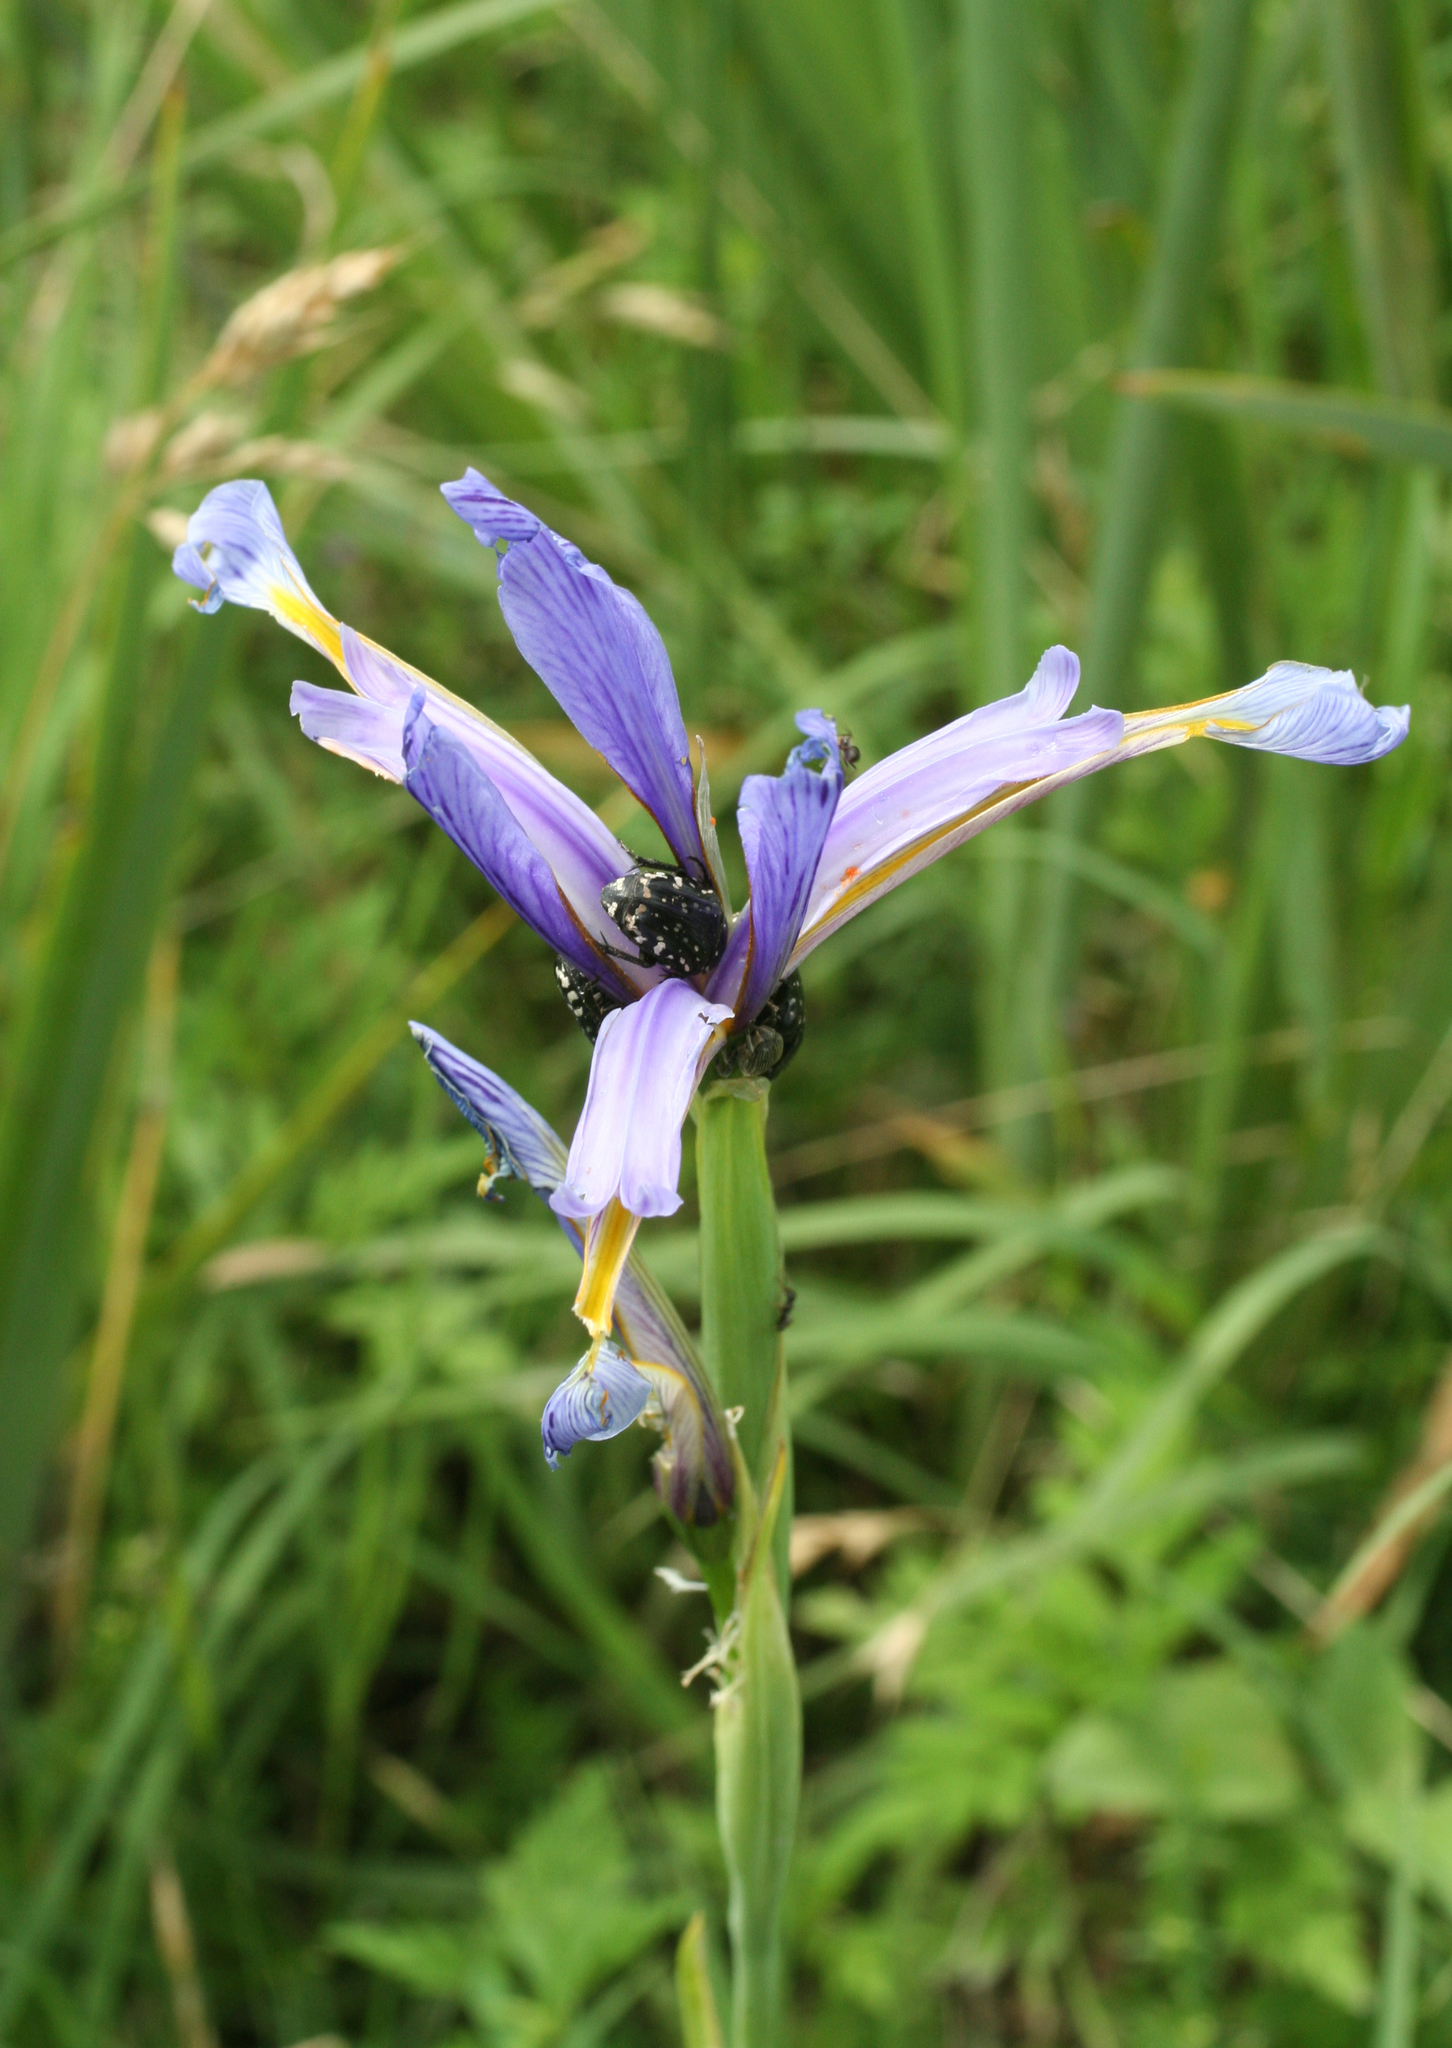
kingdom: Plantae
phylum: Tracheophyta
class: Liliopsida
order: Asparagales
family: Iridaceae
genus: Iris
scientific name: Iris pseudonotha
